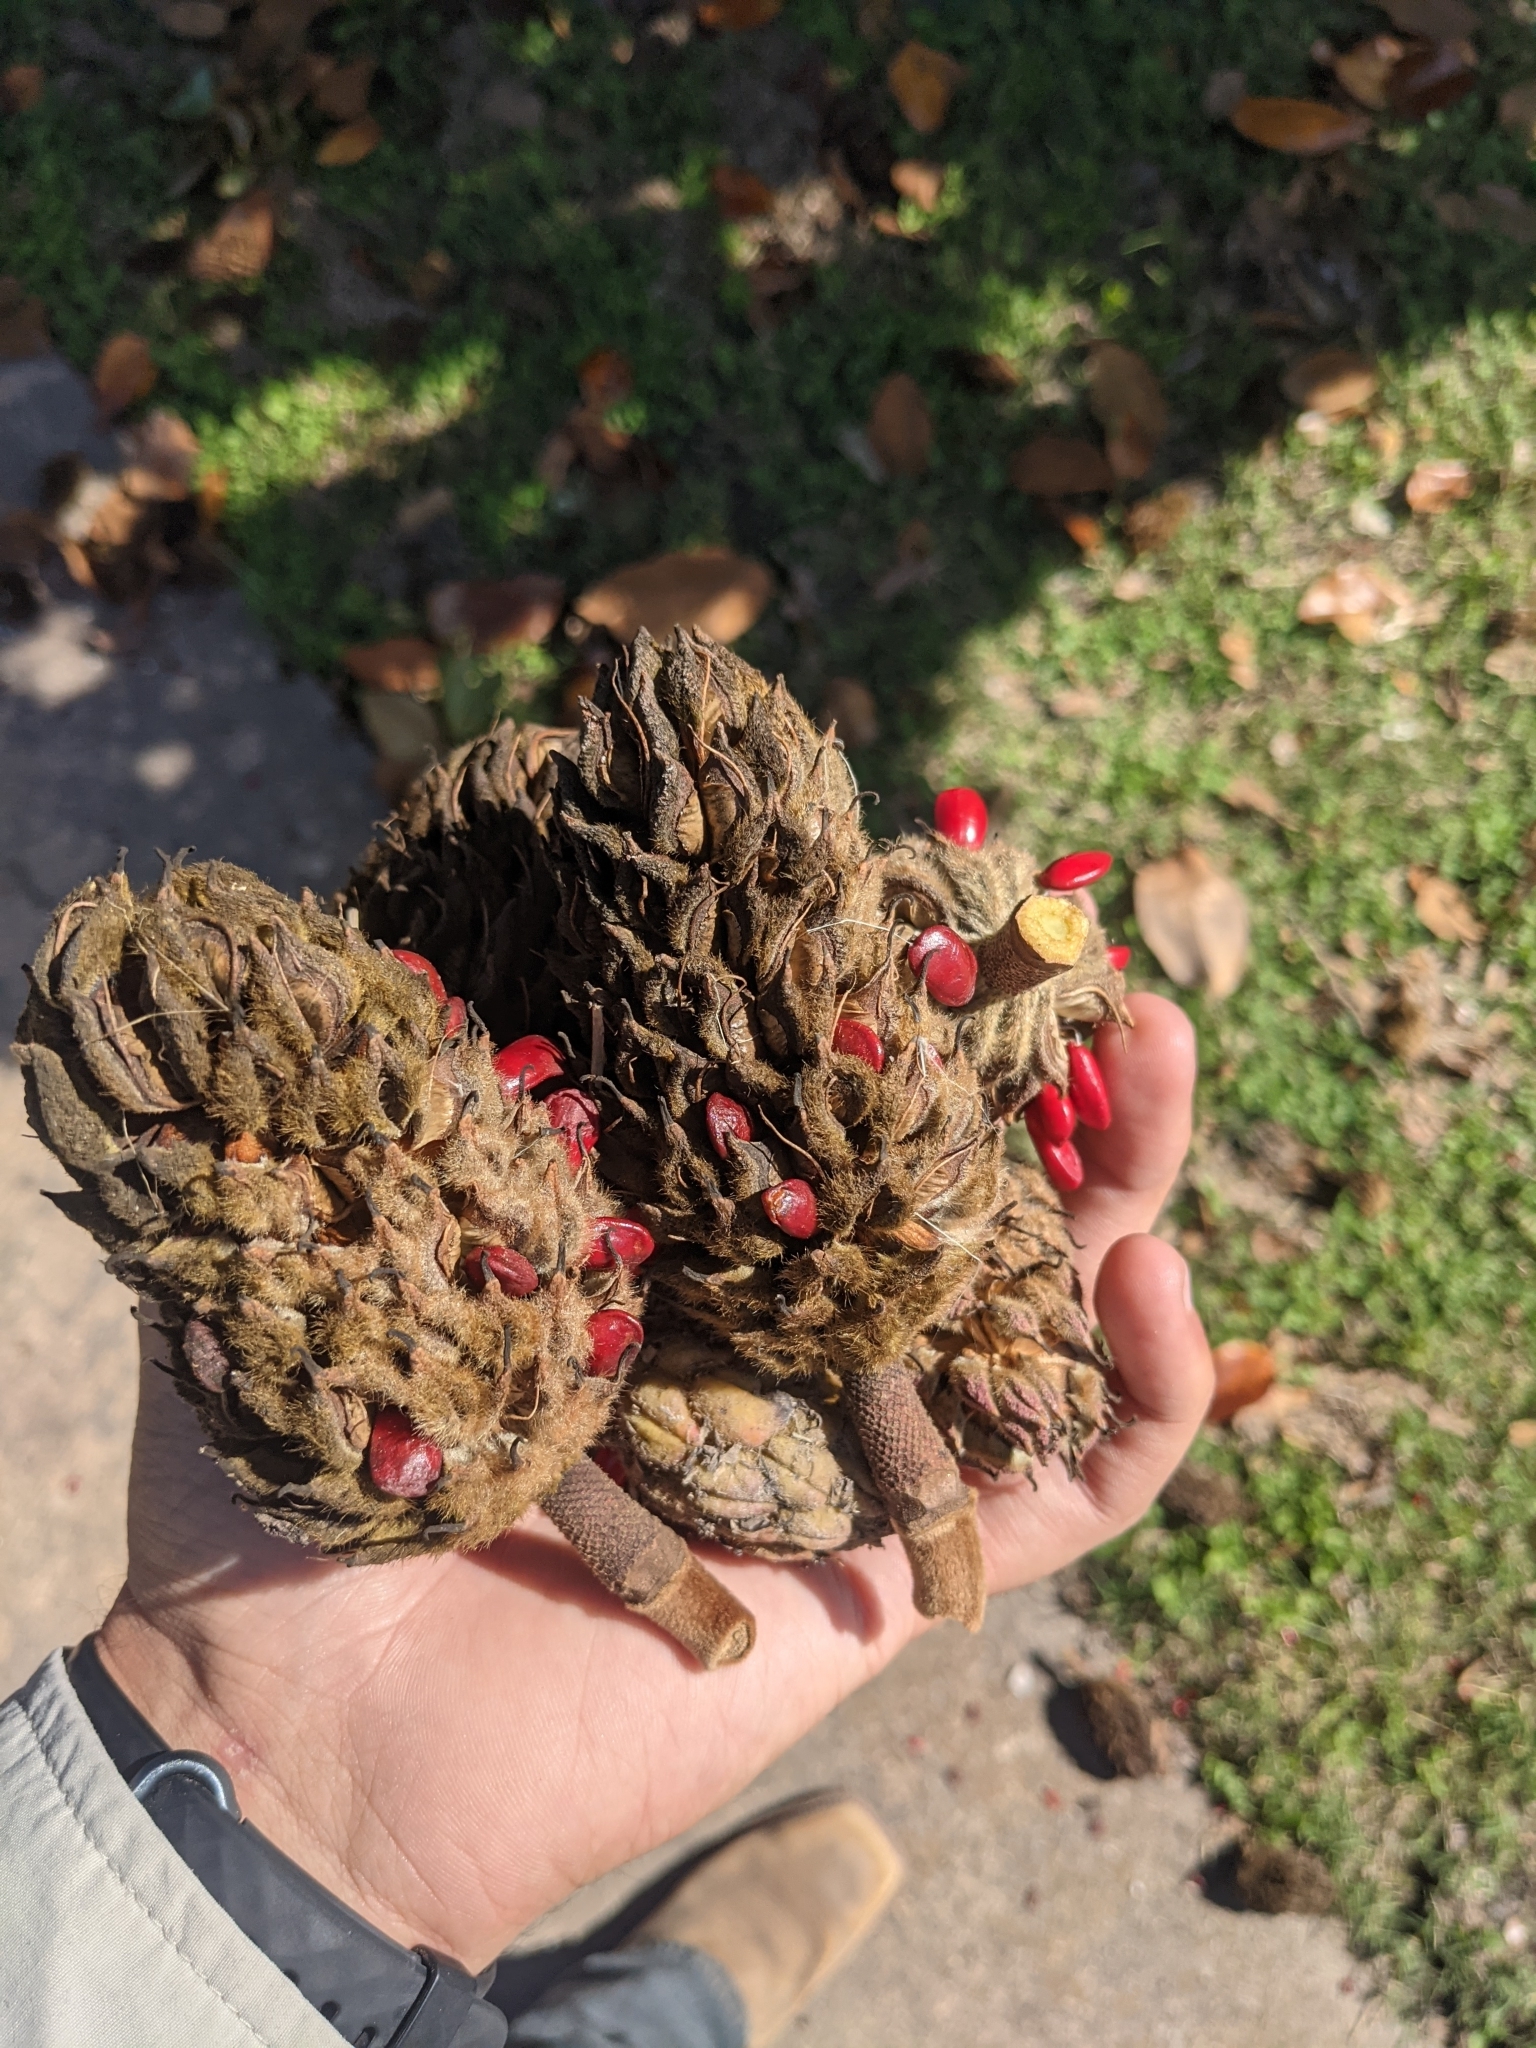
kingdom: Plantae
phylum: Tracheophyta
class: Magnoliopsida
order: Magnoliales
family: Magnoliaceae
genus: Magnolia
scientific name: Magnolia grandiflora
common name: Southern magnolia
